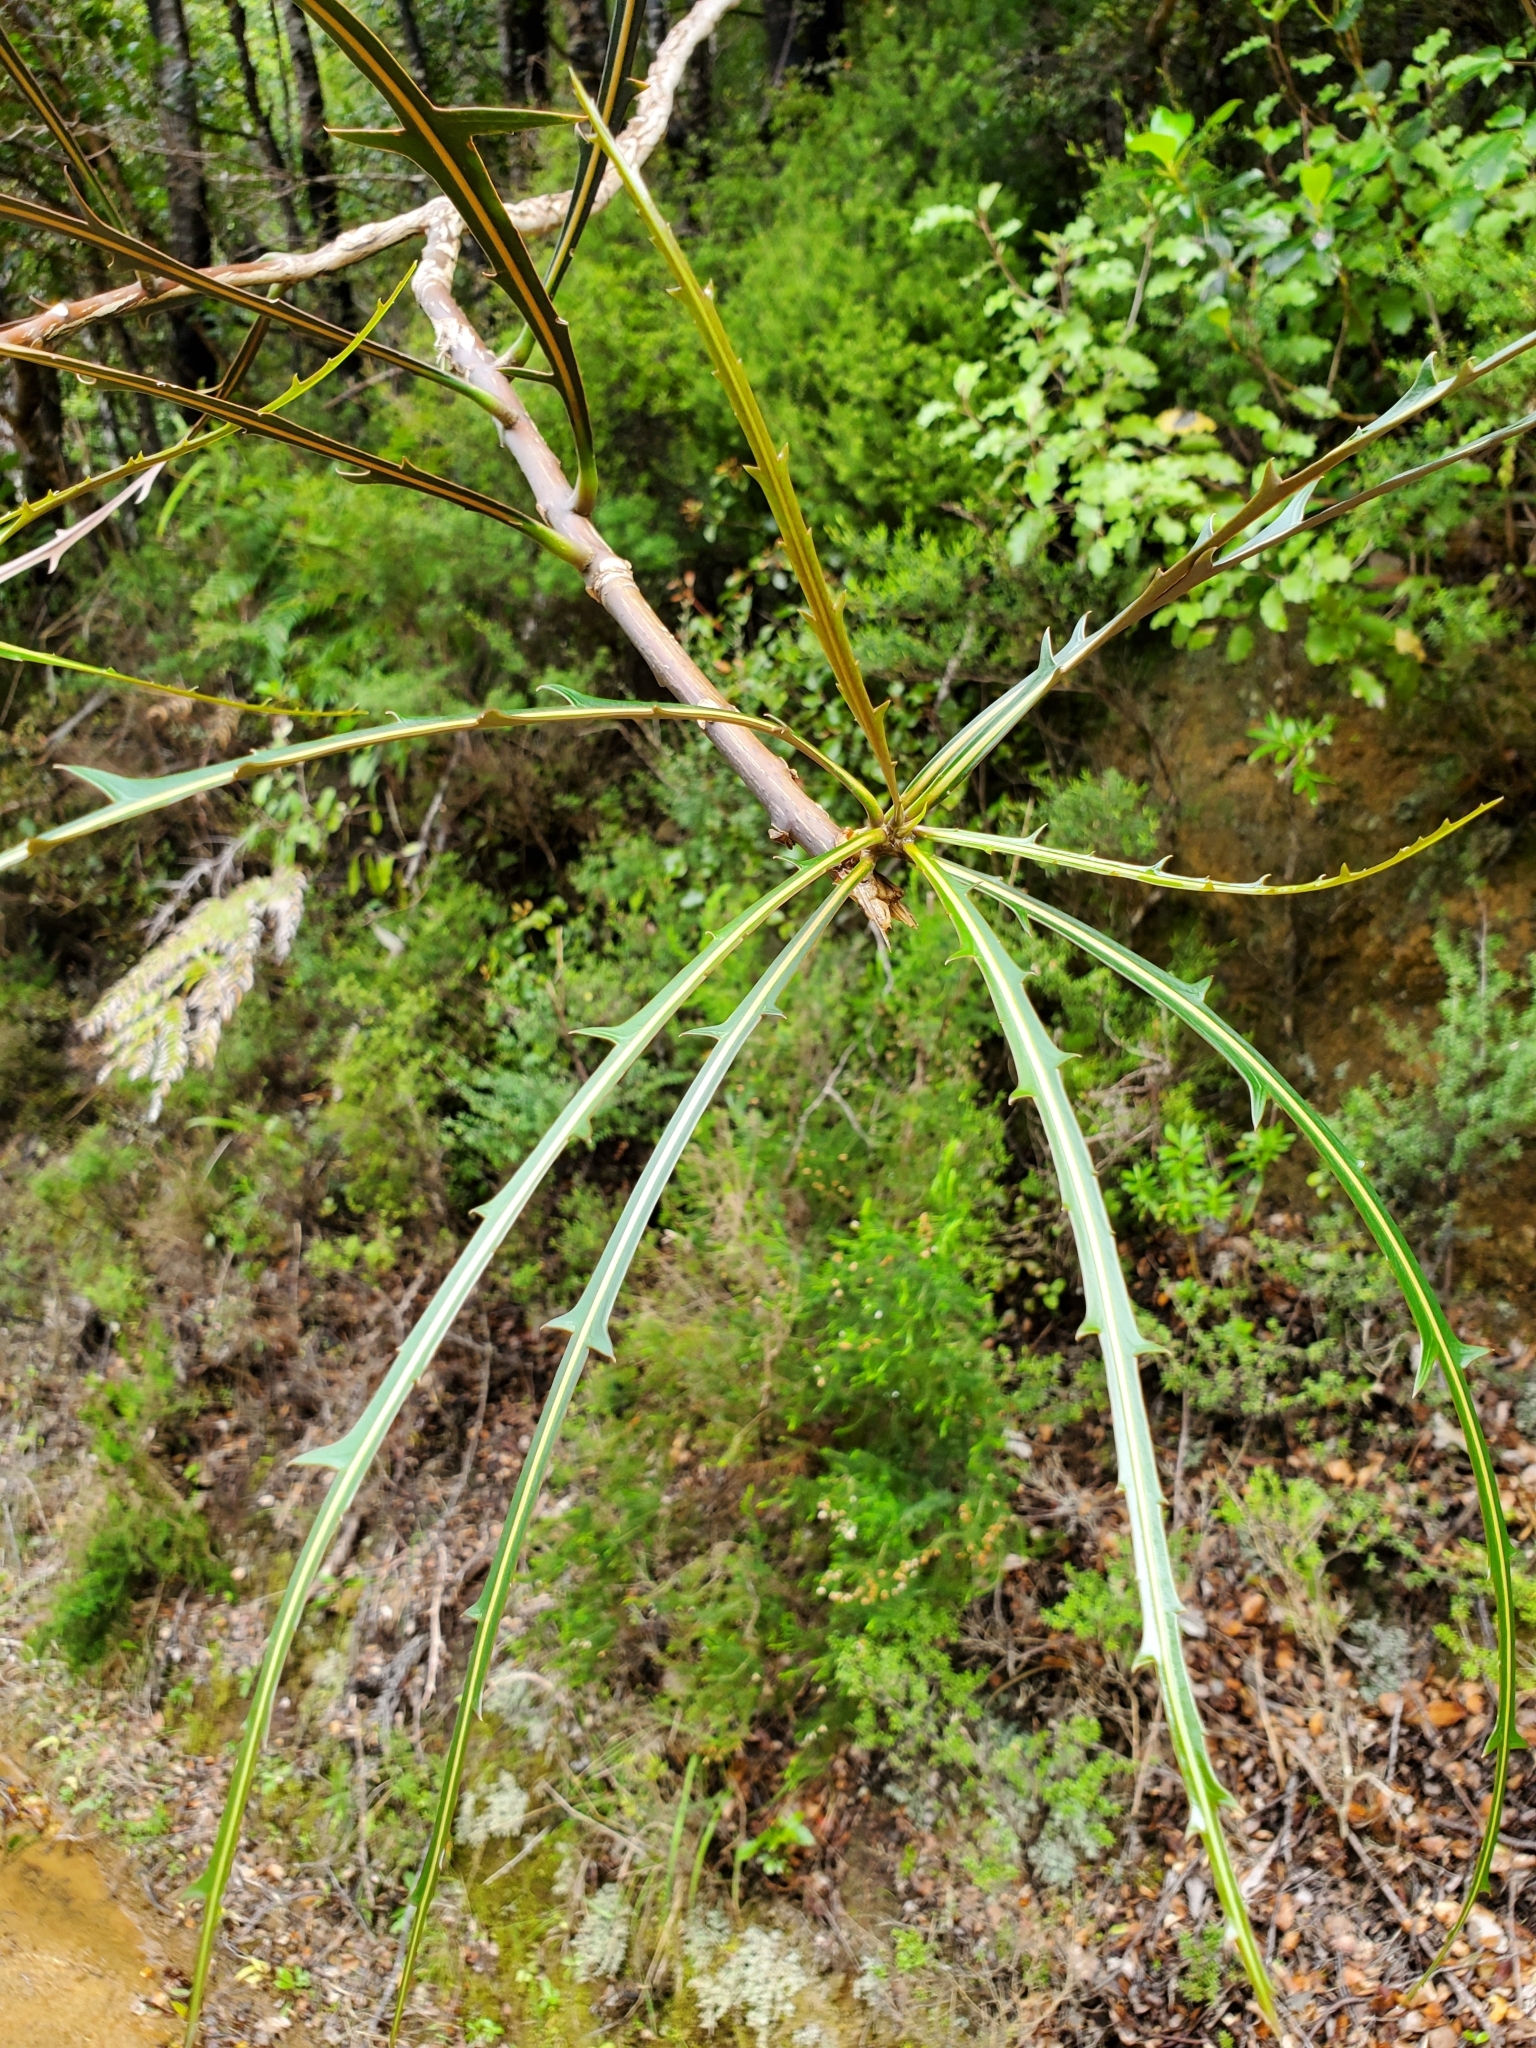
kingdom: Plantae
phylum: Tracheophyta
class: Magnoliopsida
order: Apiales
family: Araliaceae
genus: Pseudopanax
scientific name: Pseudopanax crassifolius
